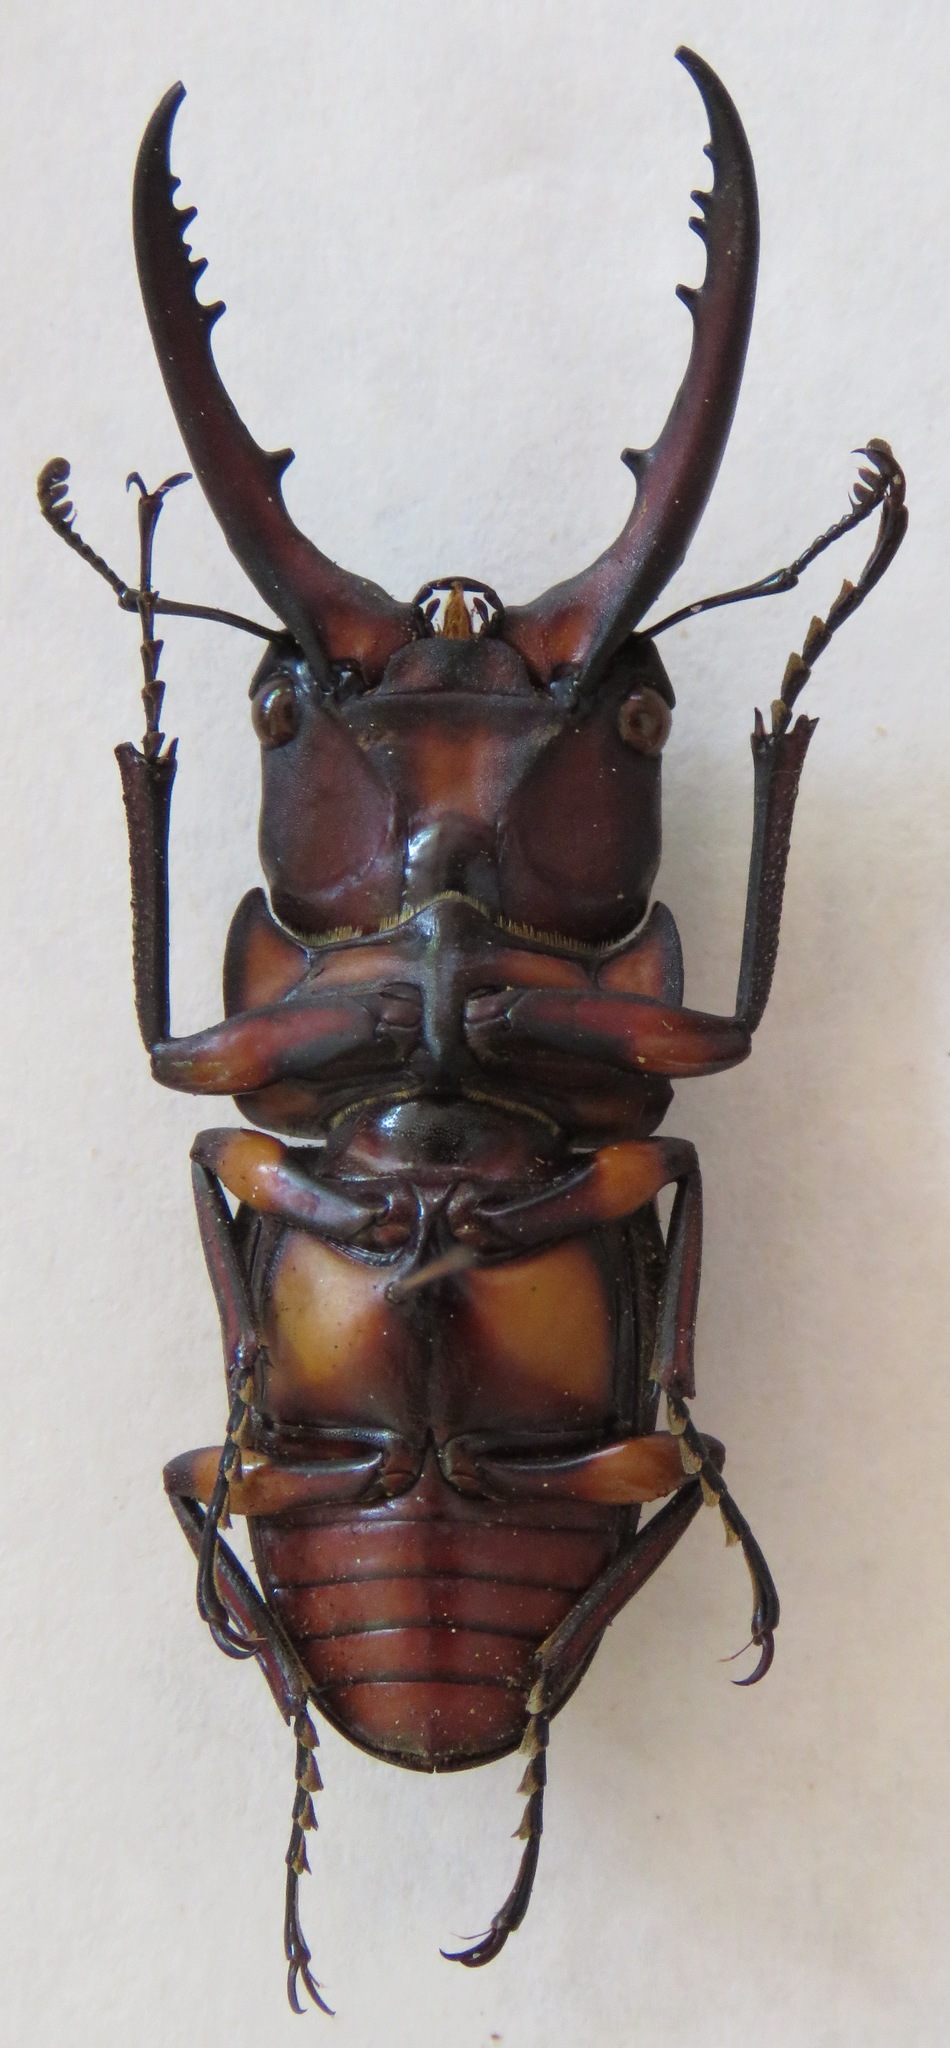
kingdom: Animalia
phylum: Arthropoda
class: Insecta
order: Coleoptera
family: Lucanidae
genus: Prosopocoilus
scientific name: Prosopocoilus suturalis
